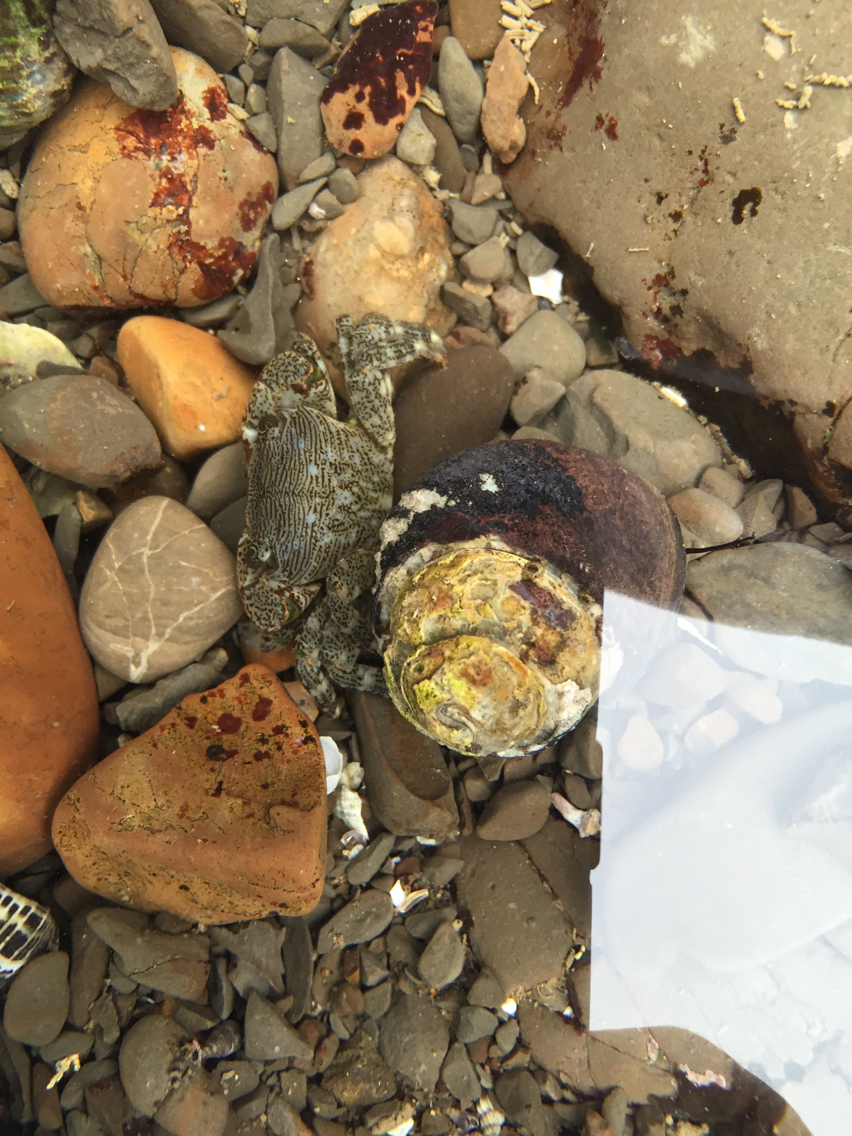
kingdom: Animalia
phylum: Arthropoda
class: Malacostraca
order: Decapoda
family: Grapsidae
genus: Pachygrapsus
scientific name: Pachygrapsus crassipes
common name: Striped shore crab
